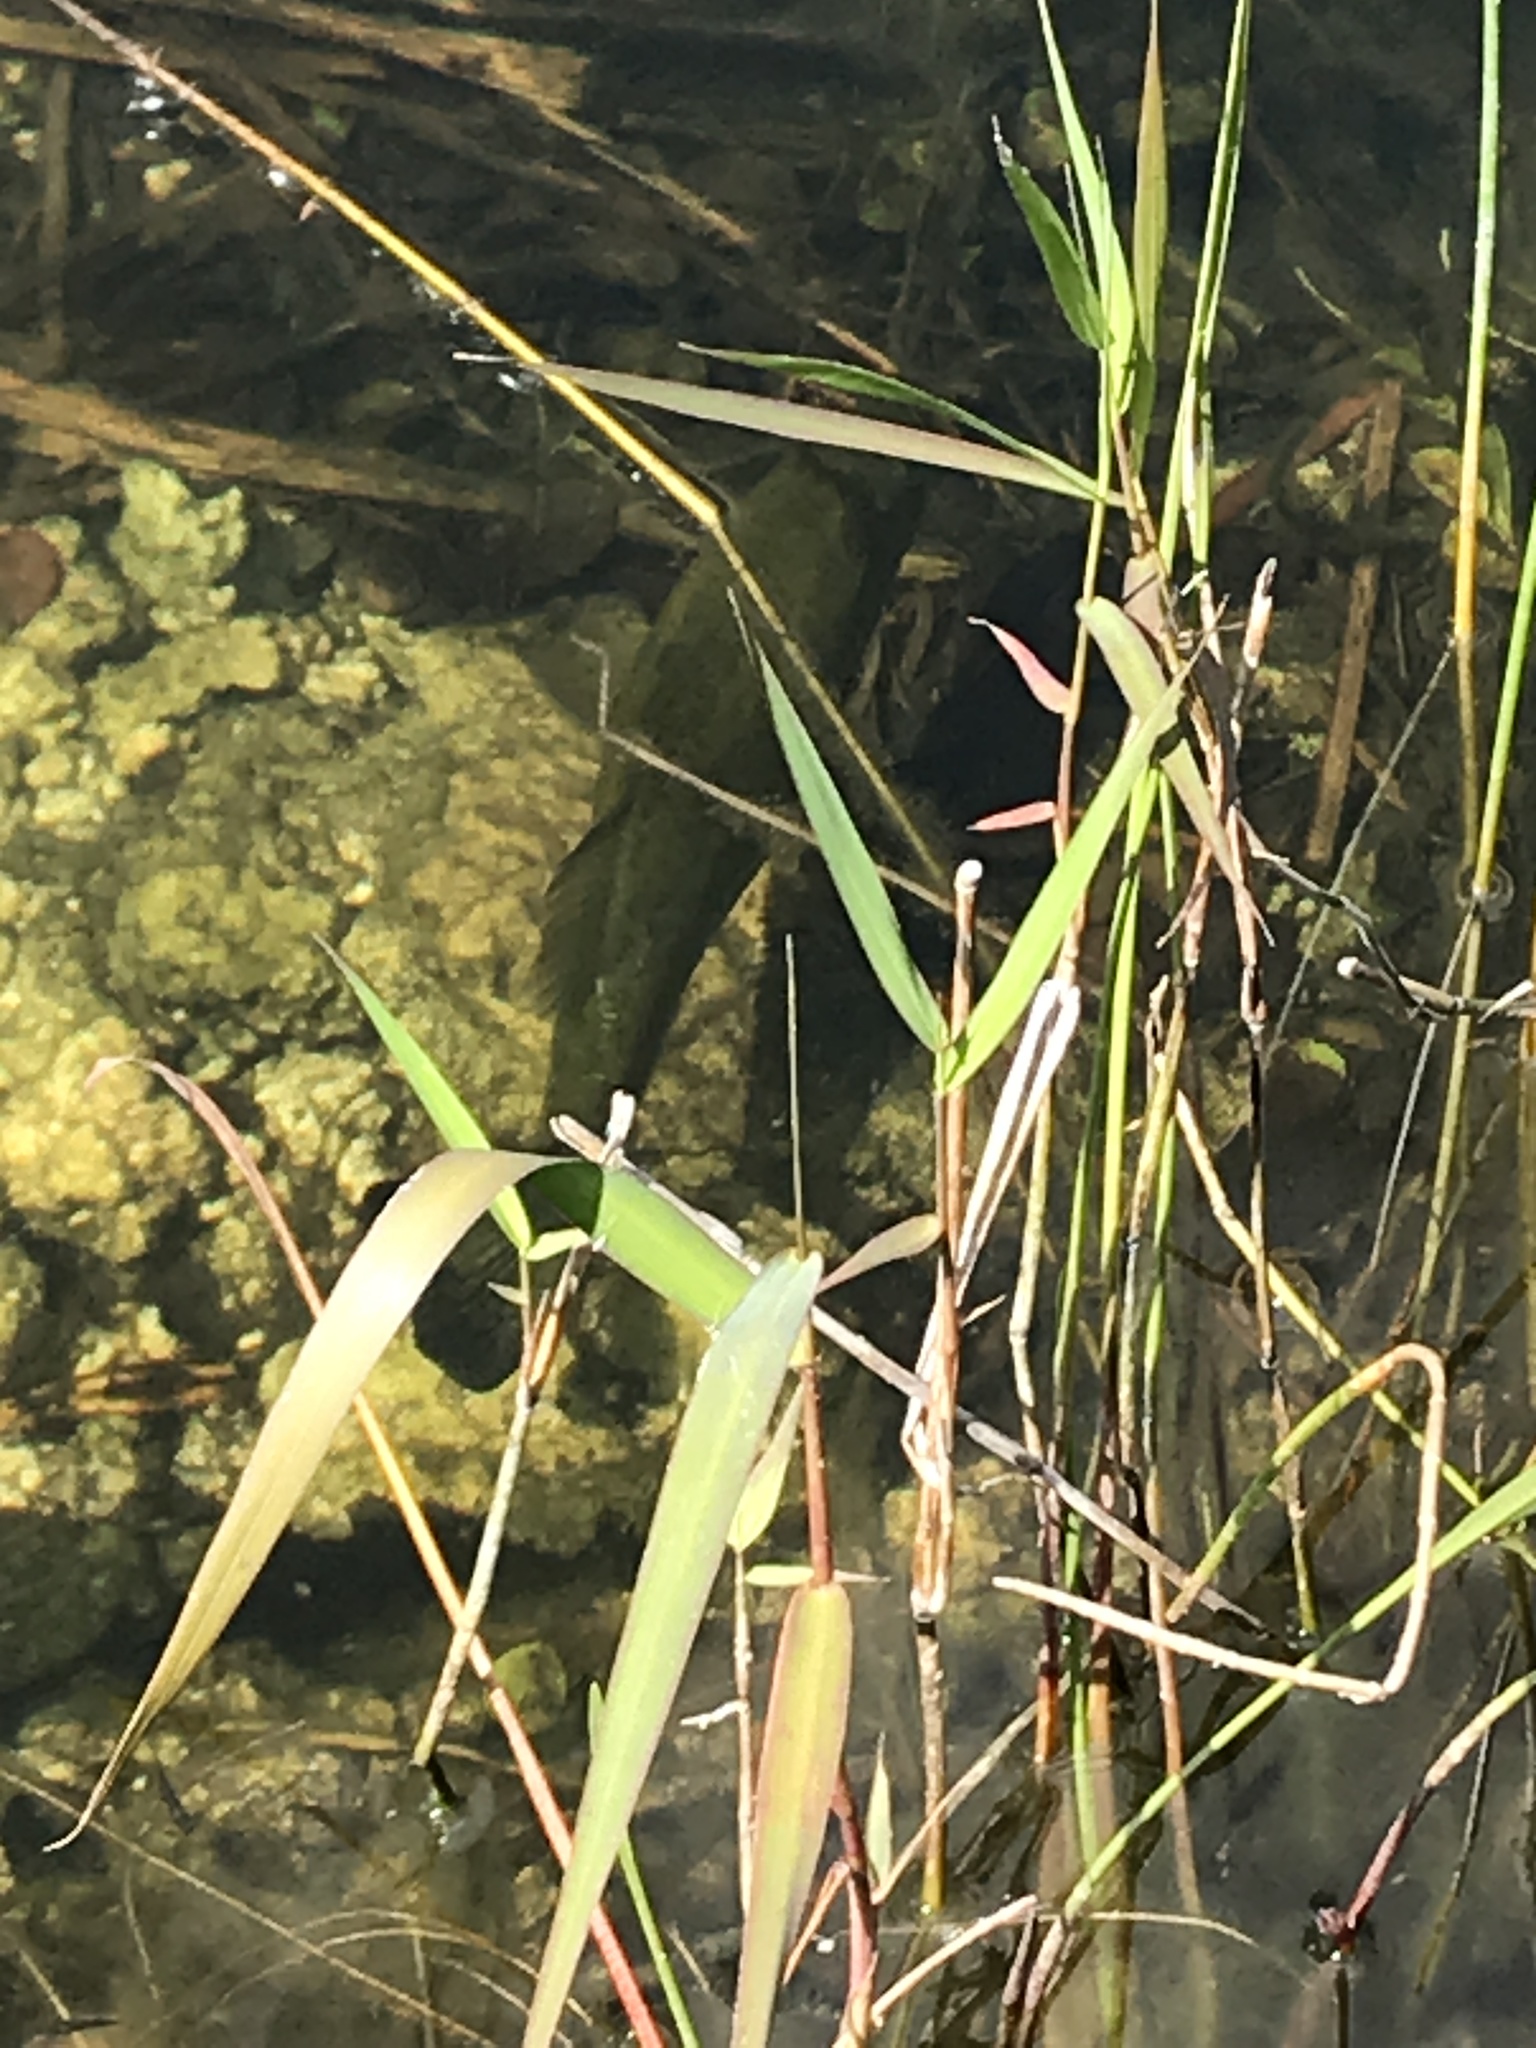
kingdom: Animalia
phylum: Chordata
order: Perciformes
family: Centrarchidae
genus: Micropterus
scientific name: Micropterus salmoides
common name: Largemouth bass
